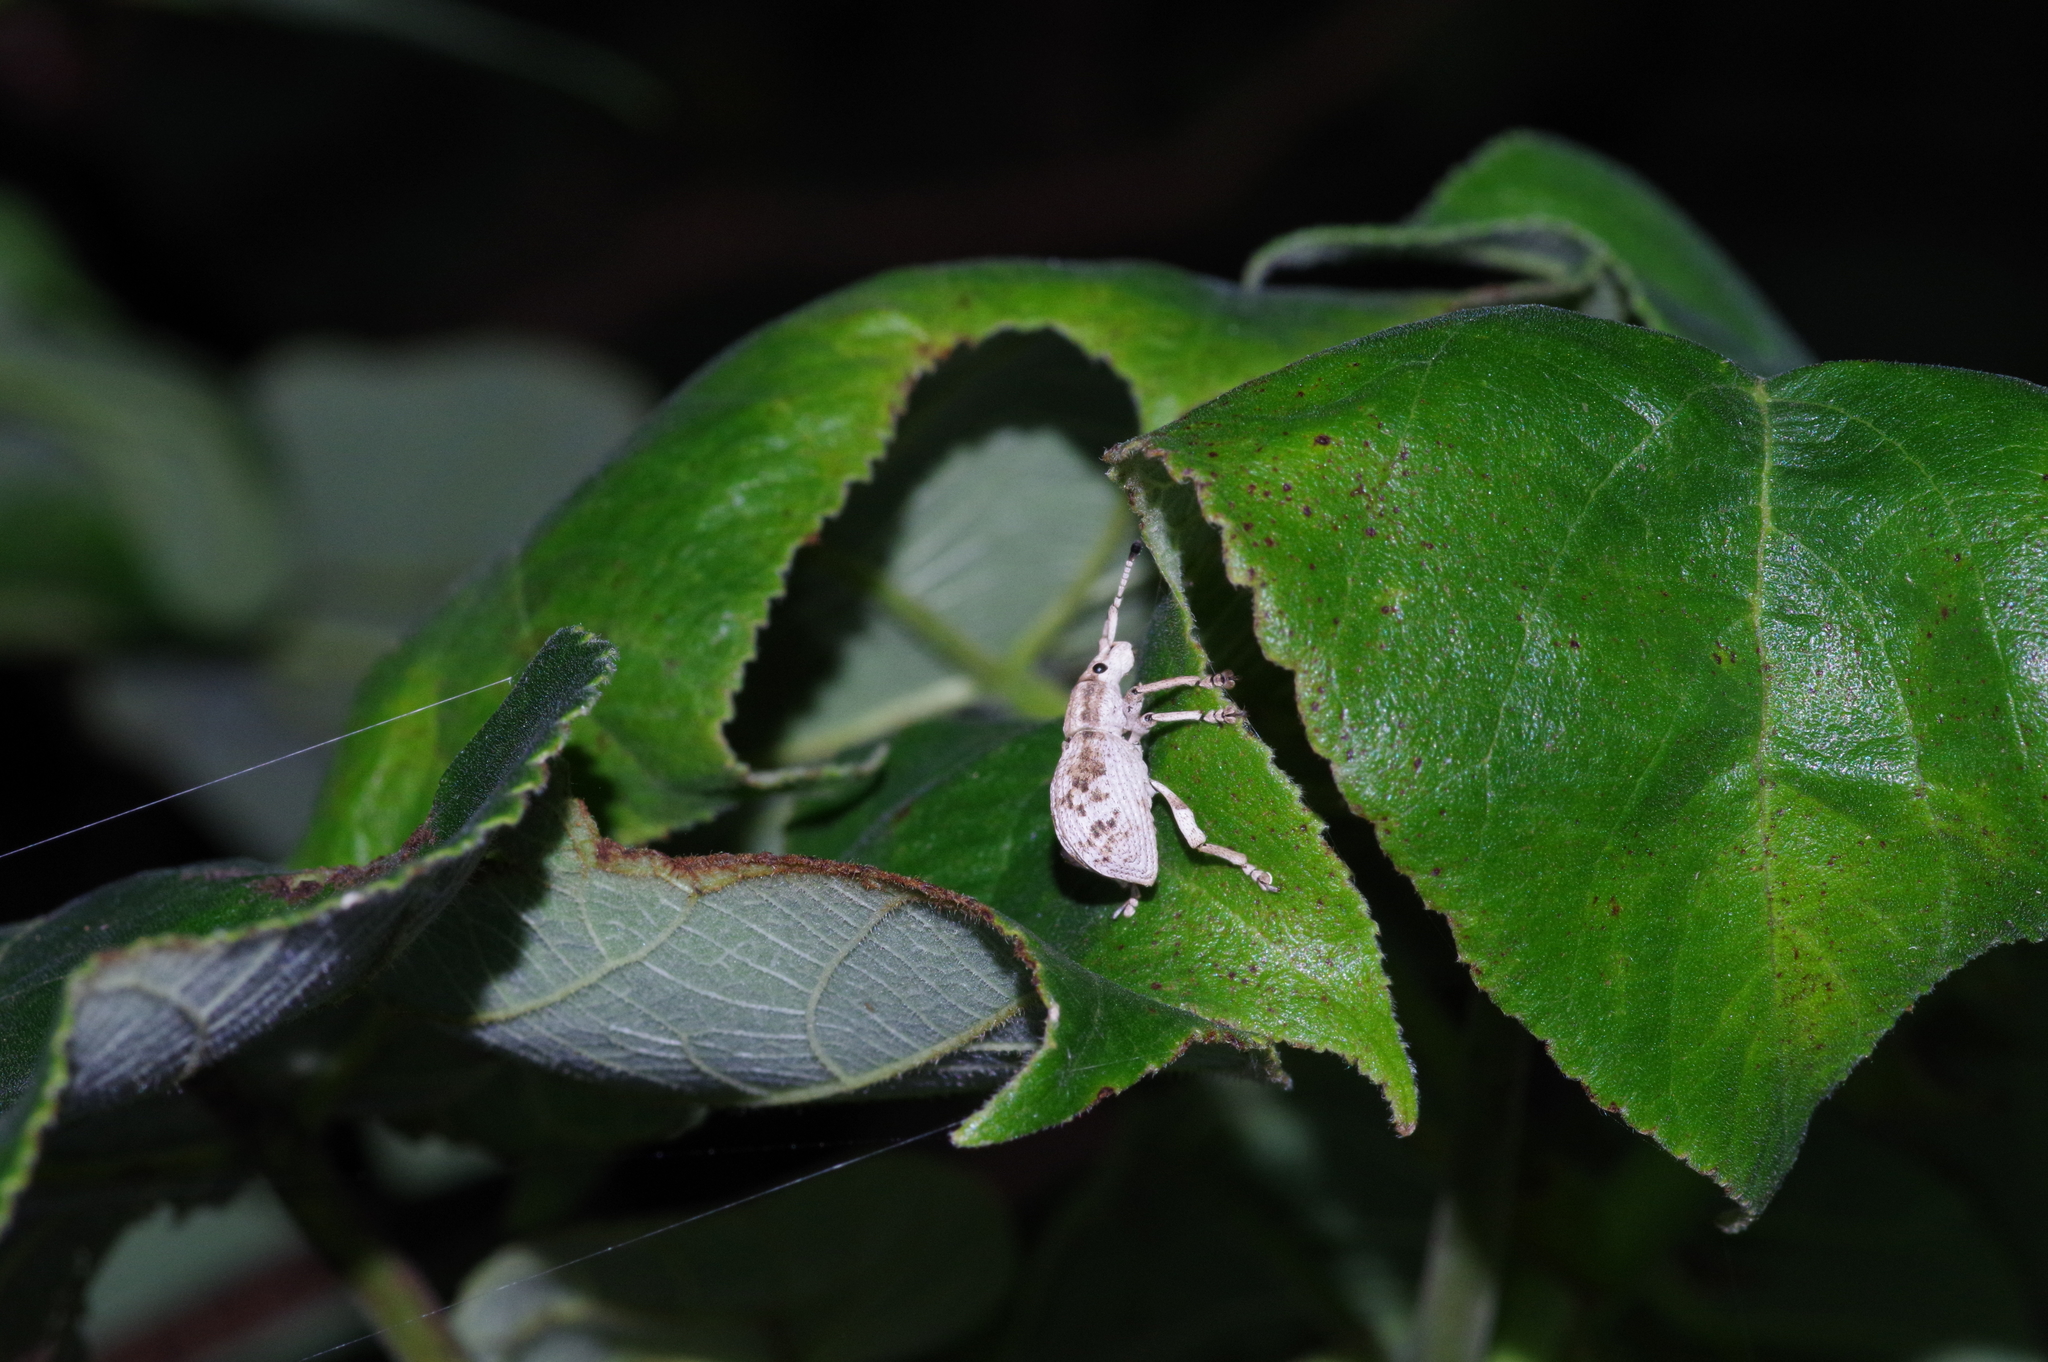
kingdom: Animalia
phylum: Arthropoda
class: Insecta
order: Coleoptera
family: Curculionidae
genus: Episomus
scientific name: Episomus mori
